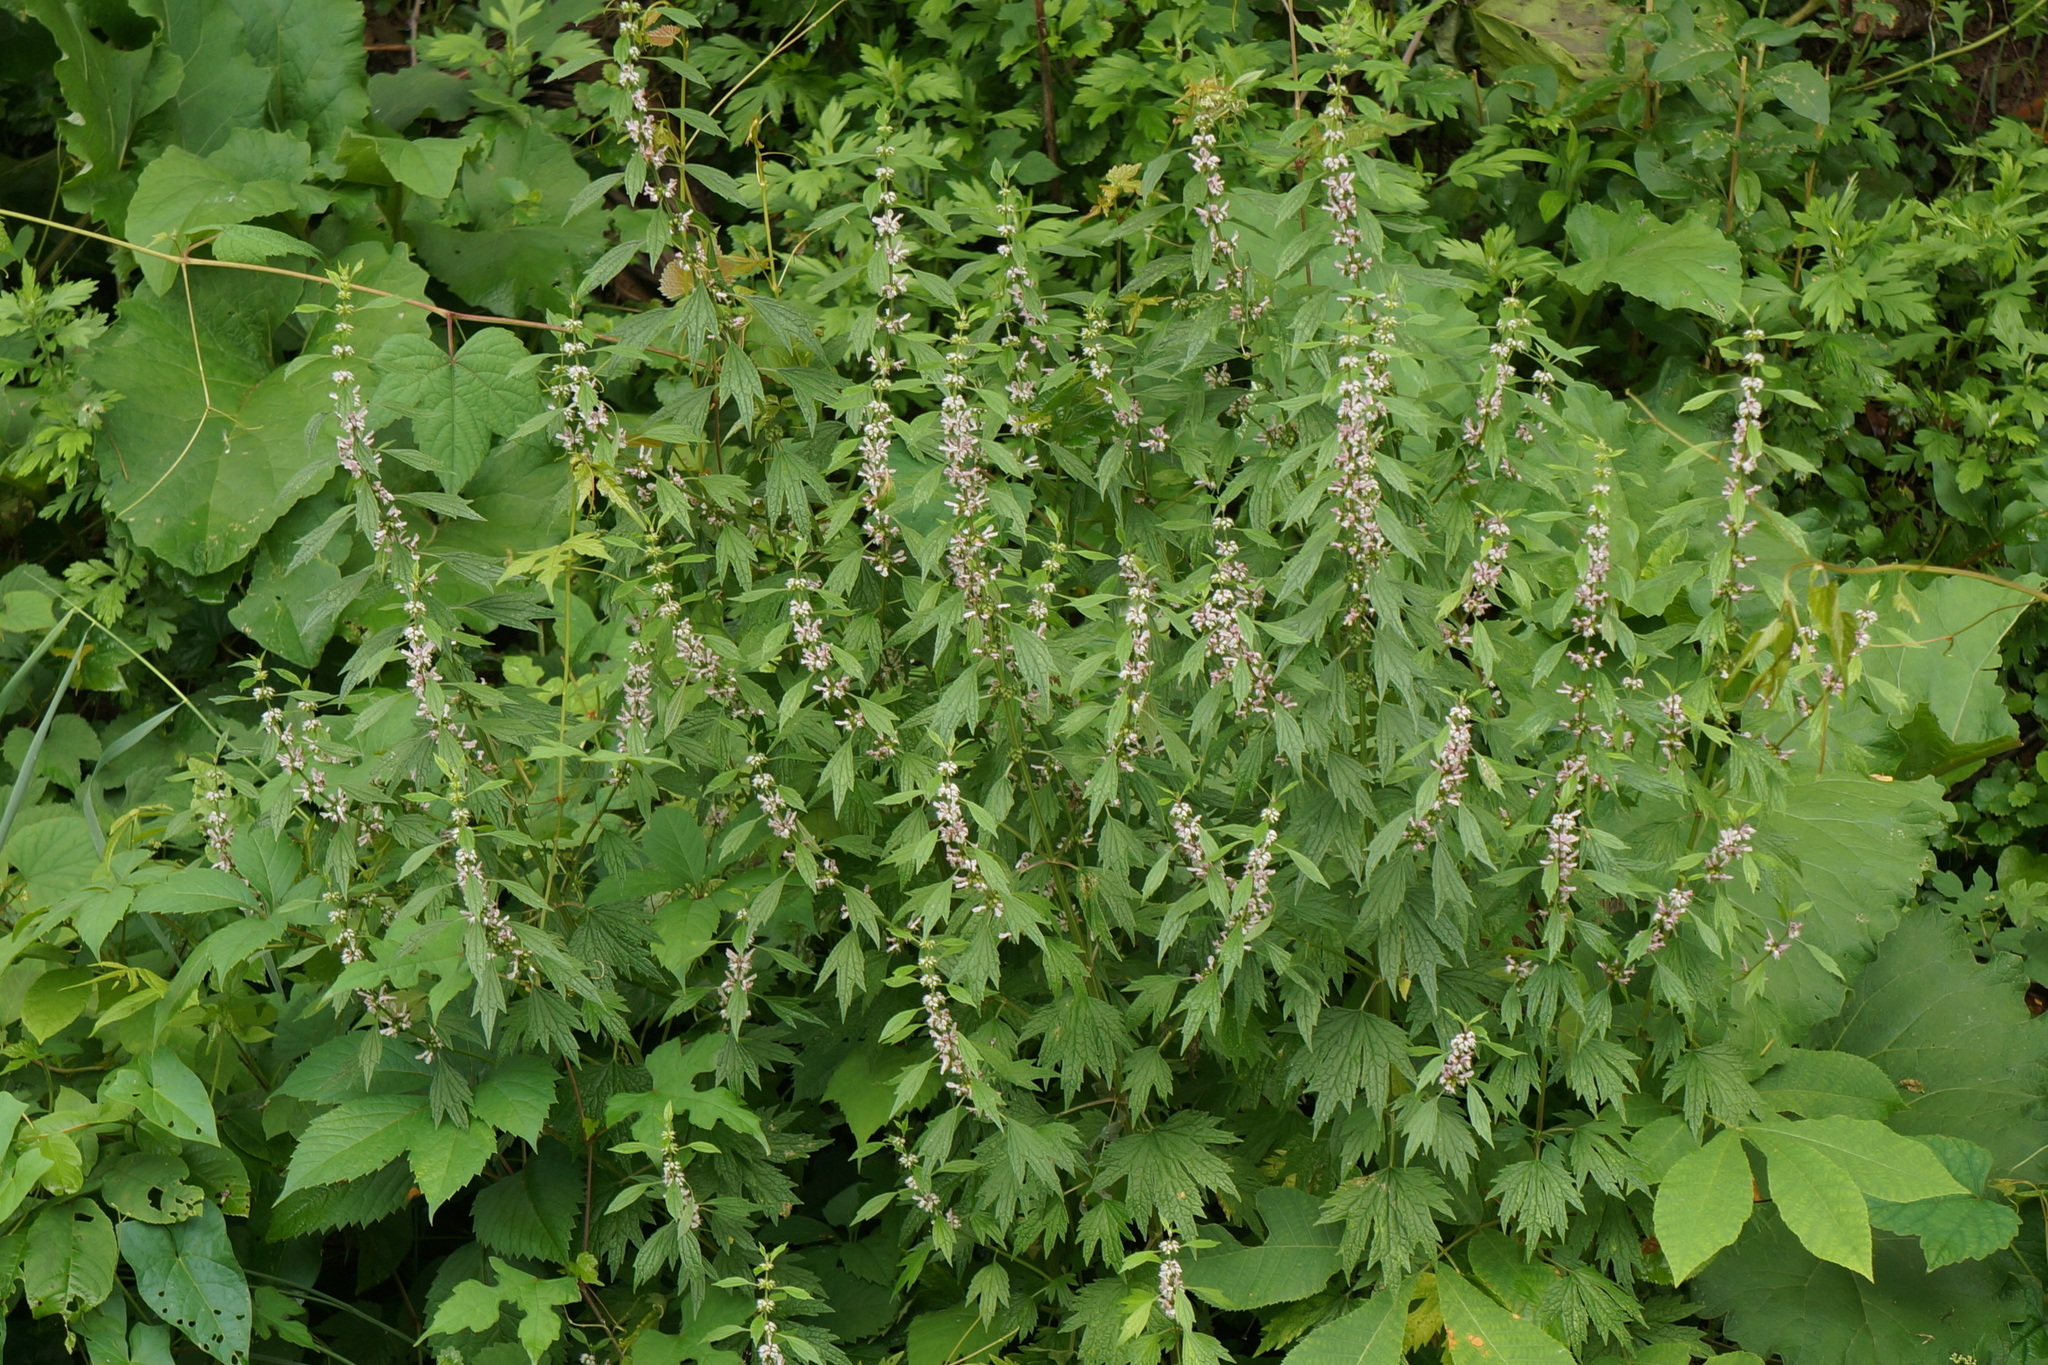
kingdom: Plantae
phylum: Tracheophyta
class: Magnoliopsida
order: Lamiales
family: Lamiaceae
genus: Leonurus
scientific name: Leonurus cardiaca
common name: Motherwort
